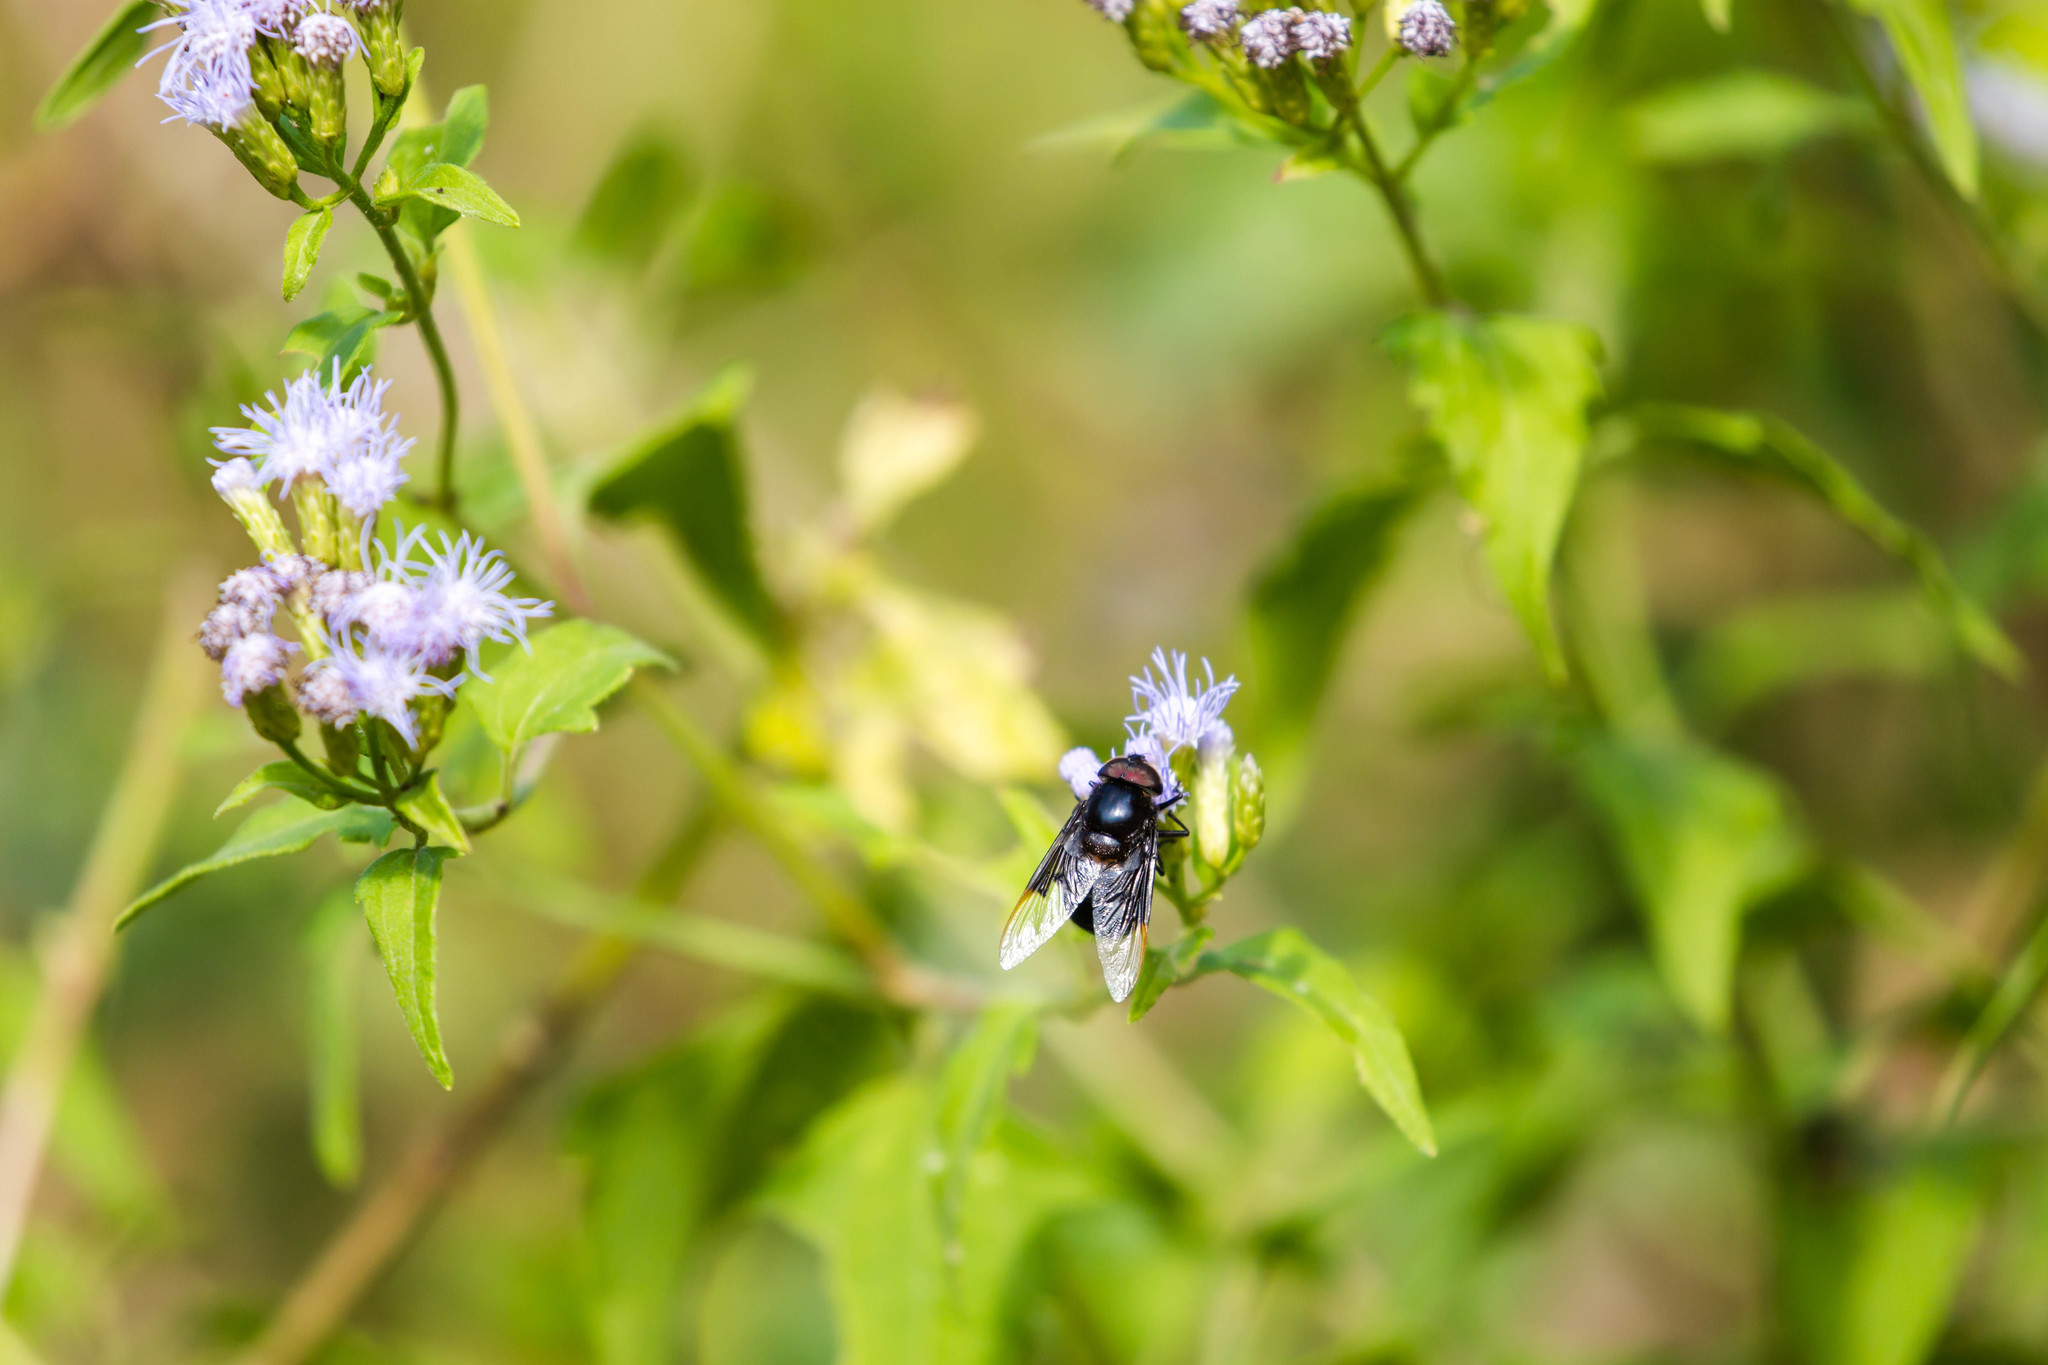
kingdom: Animalia
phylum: Arthropoda
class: Insecta
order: Diptera
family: Syrphidae
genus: Copestylum
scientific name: Copestylum mexicanum
